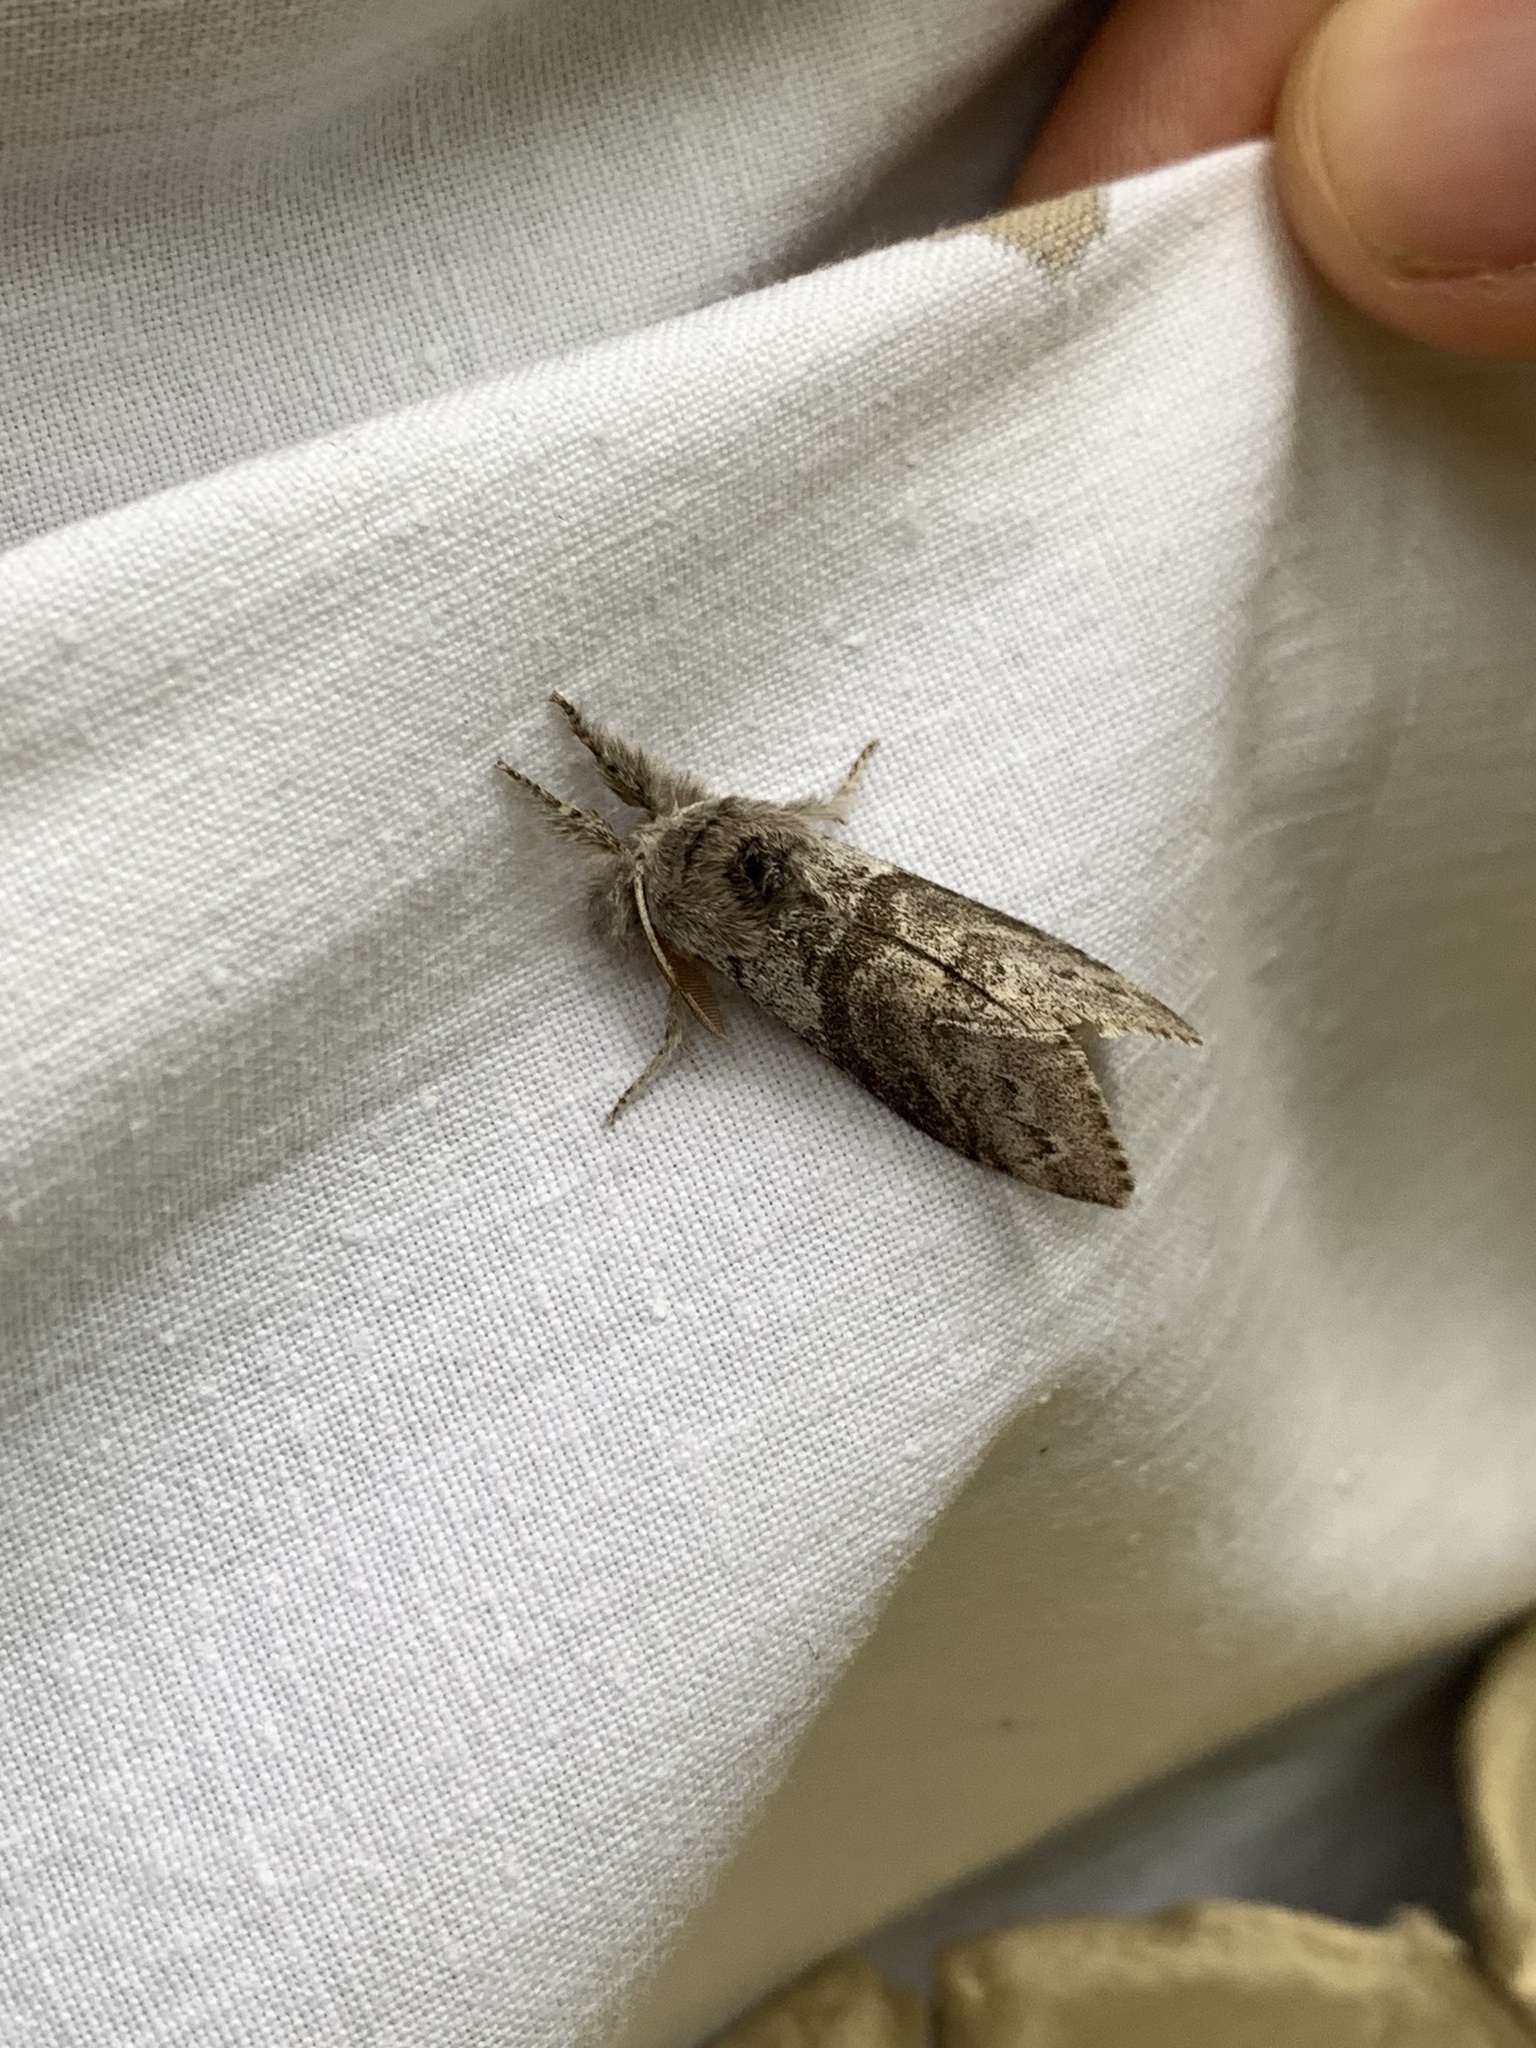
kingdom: Animalia
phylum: Arthropoda
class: Insecta
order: Lepidoptera
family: Erebidae
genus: Calliteara
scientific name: Calliteara pudibunda
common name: Pale tussock
